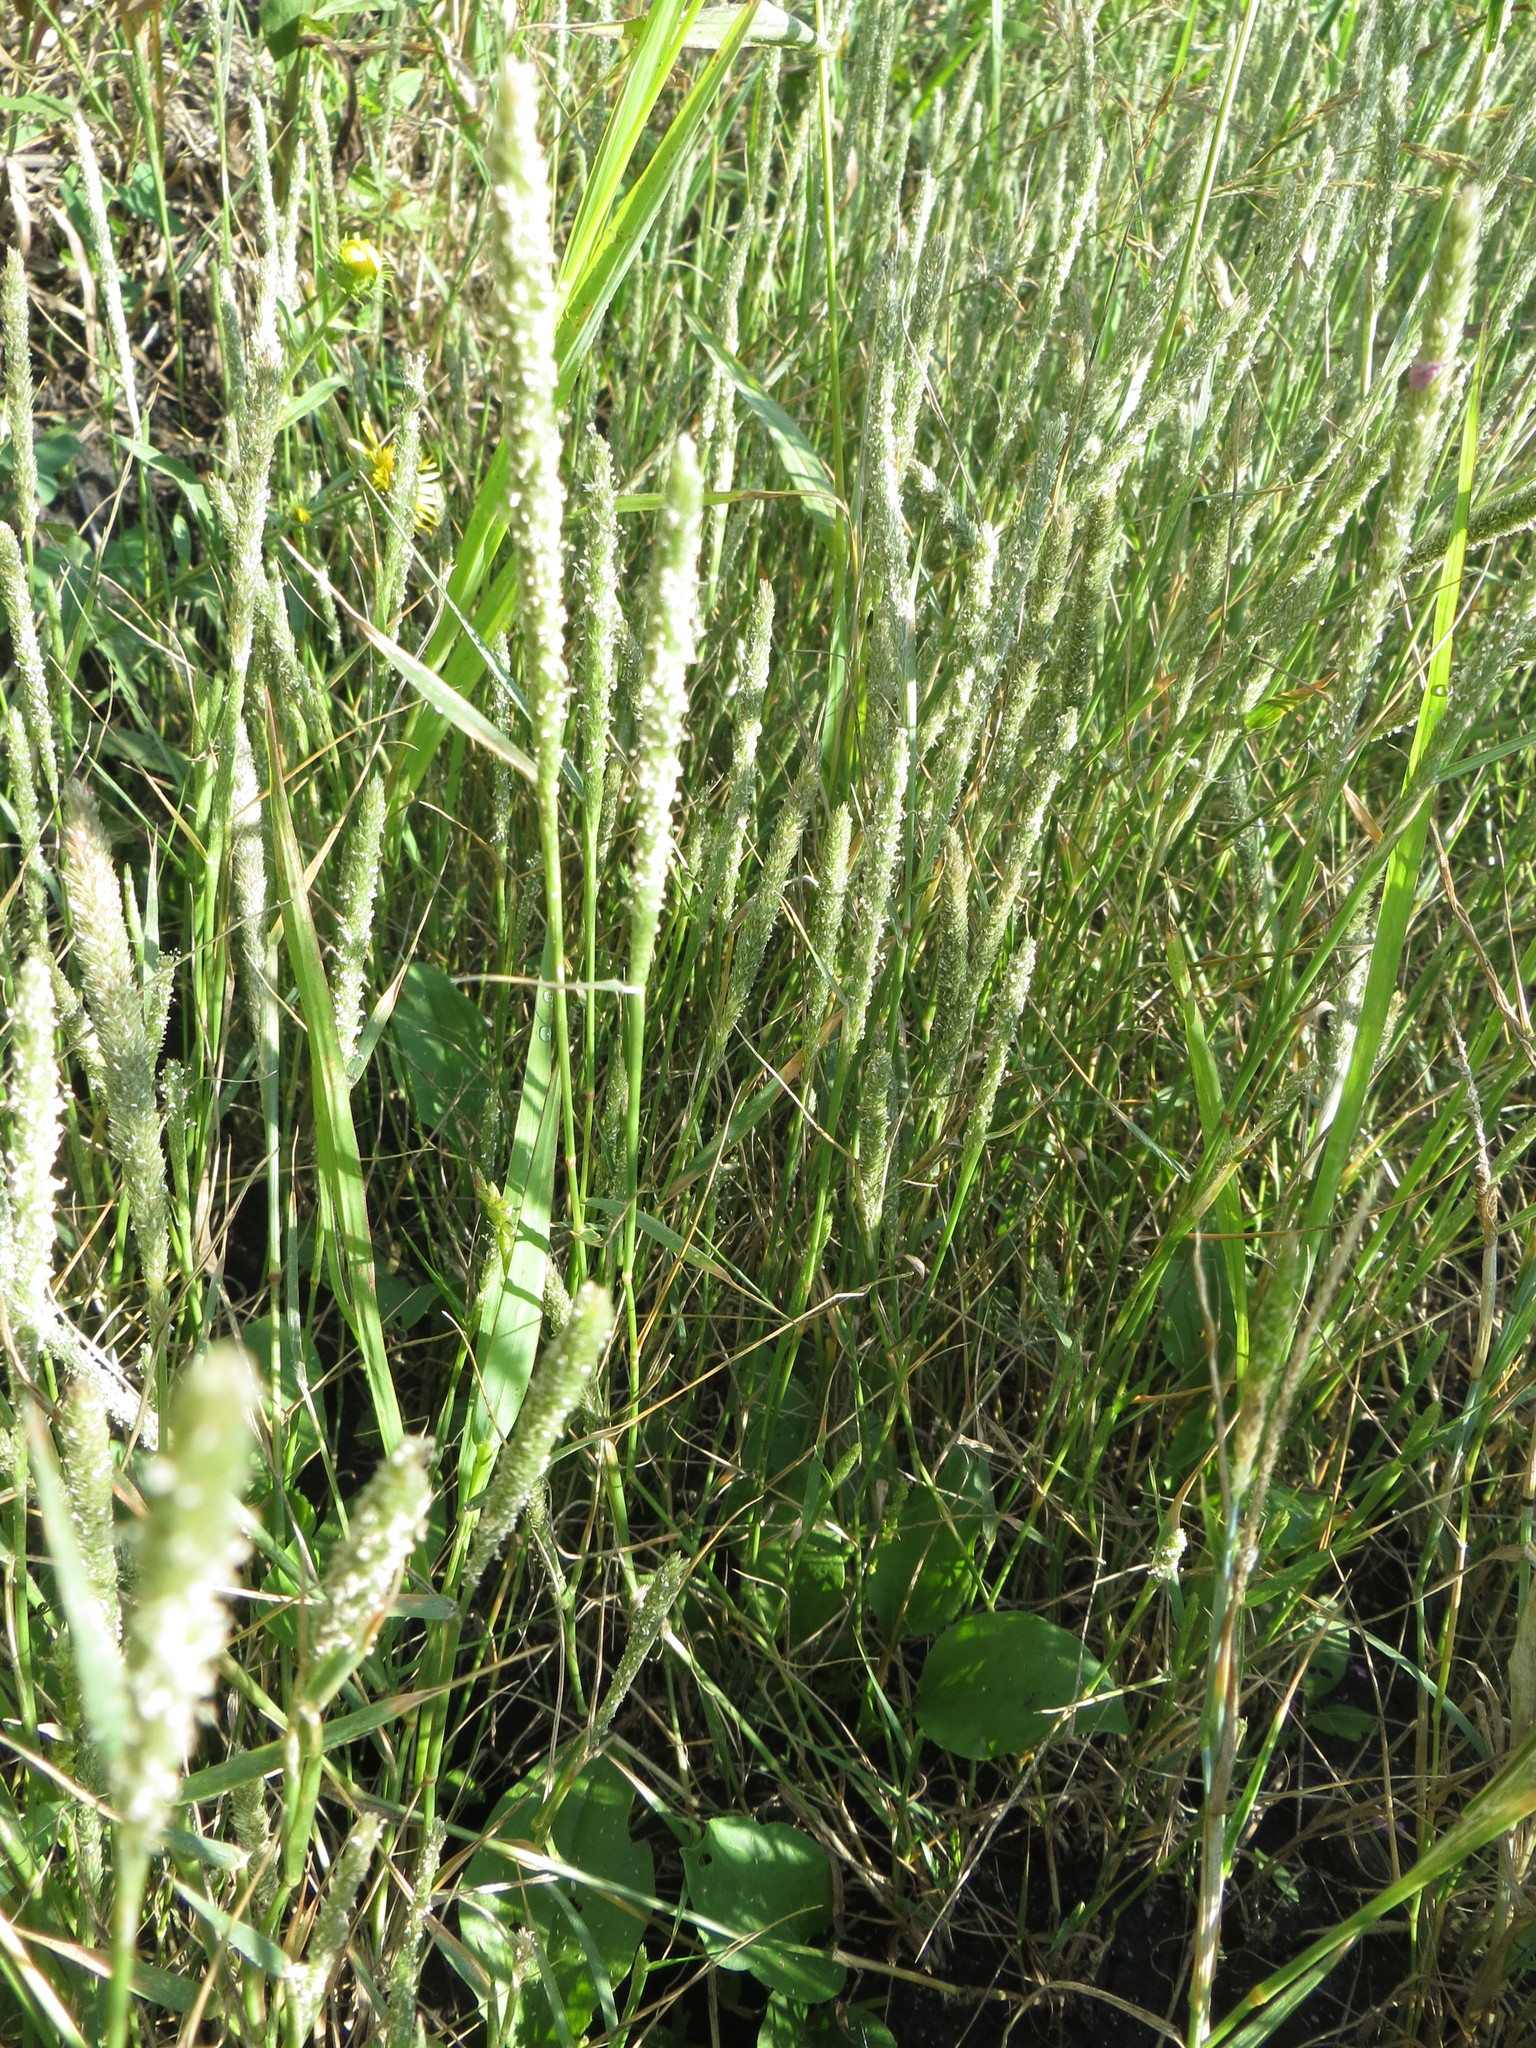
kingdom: Plantae
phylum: Tracheophyta
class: Liliopsida
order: Poales
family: Poaceae
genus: Sporobolus
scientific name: Sporobolus alopecuroides
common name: Foxtail pricklegrass
